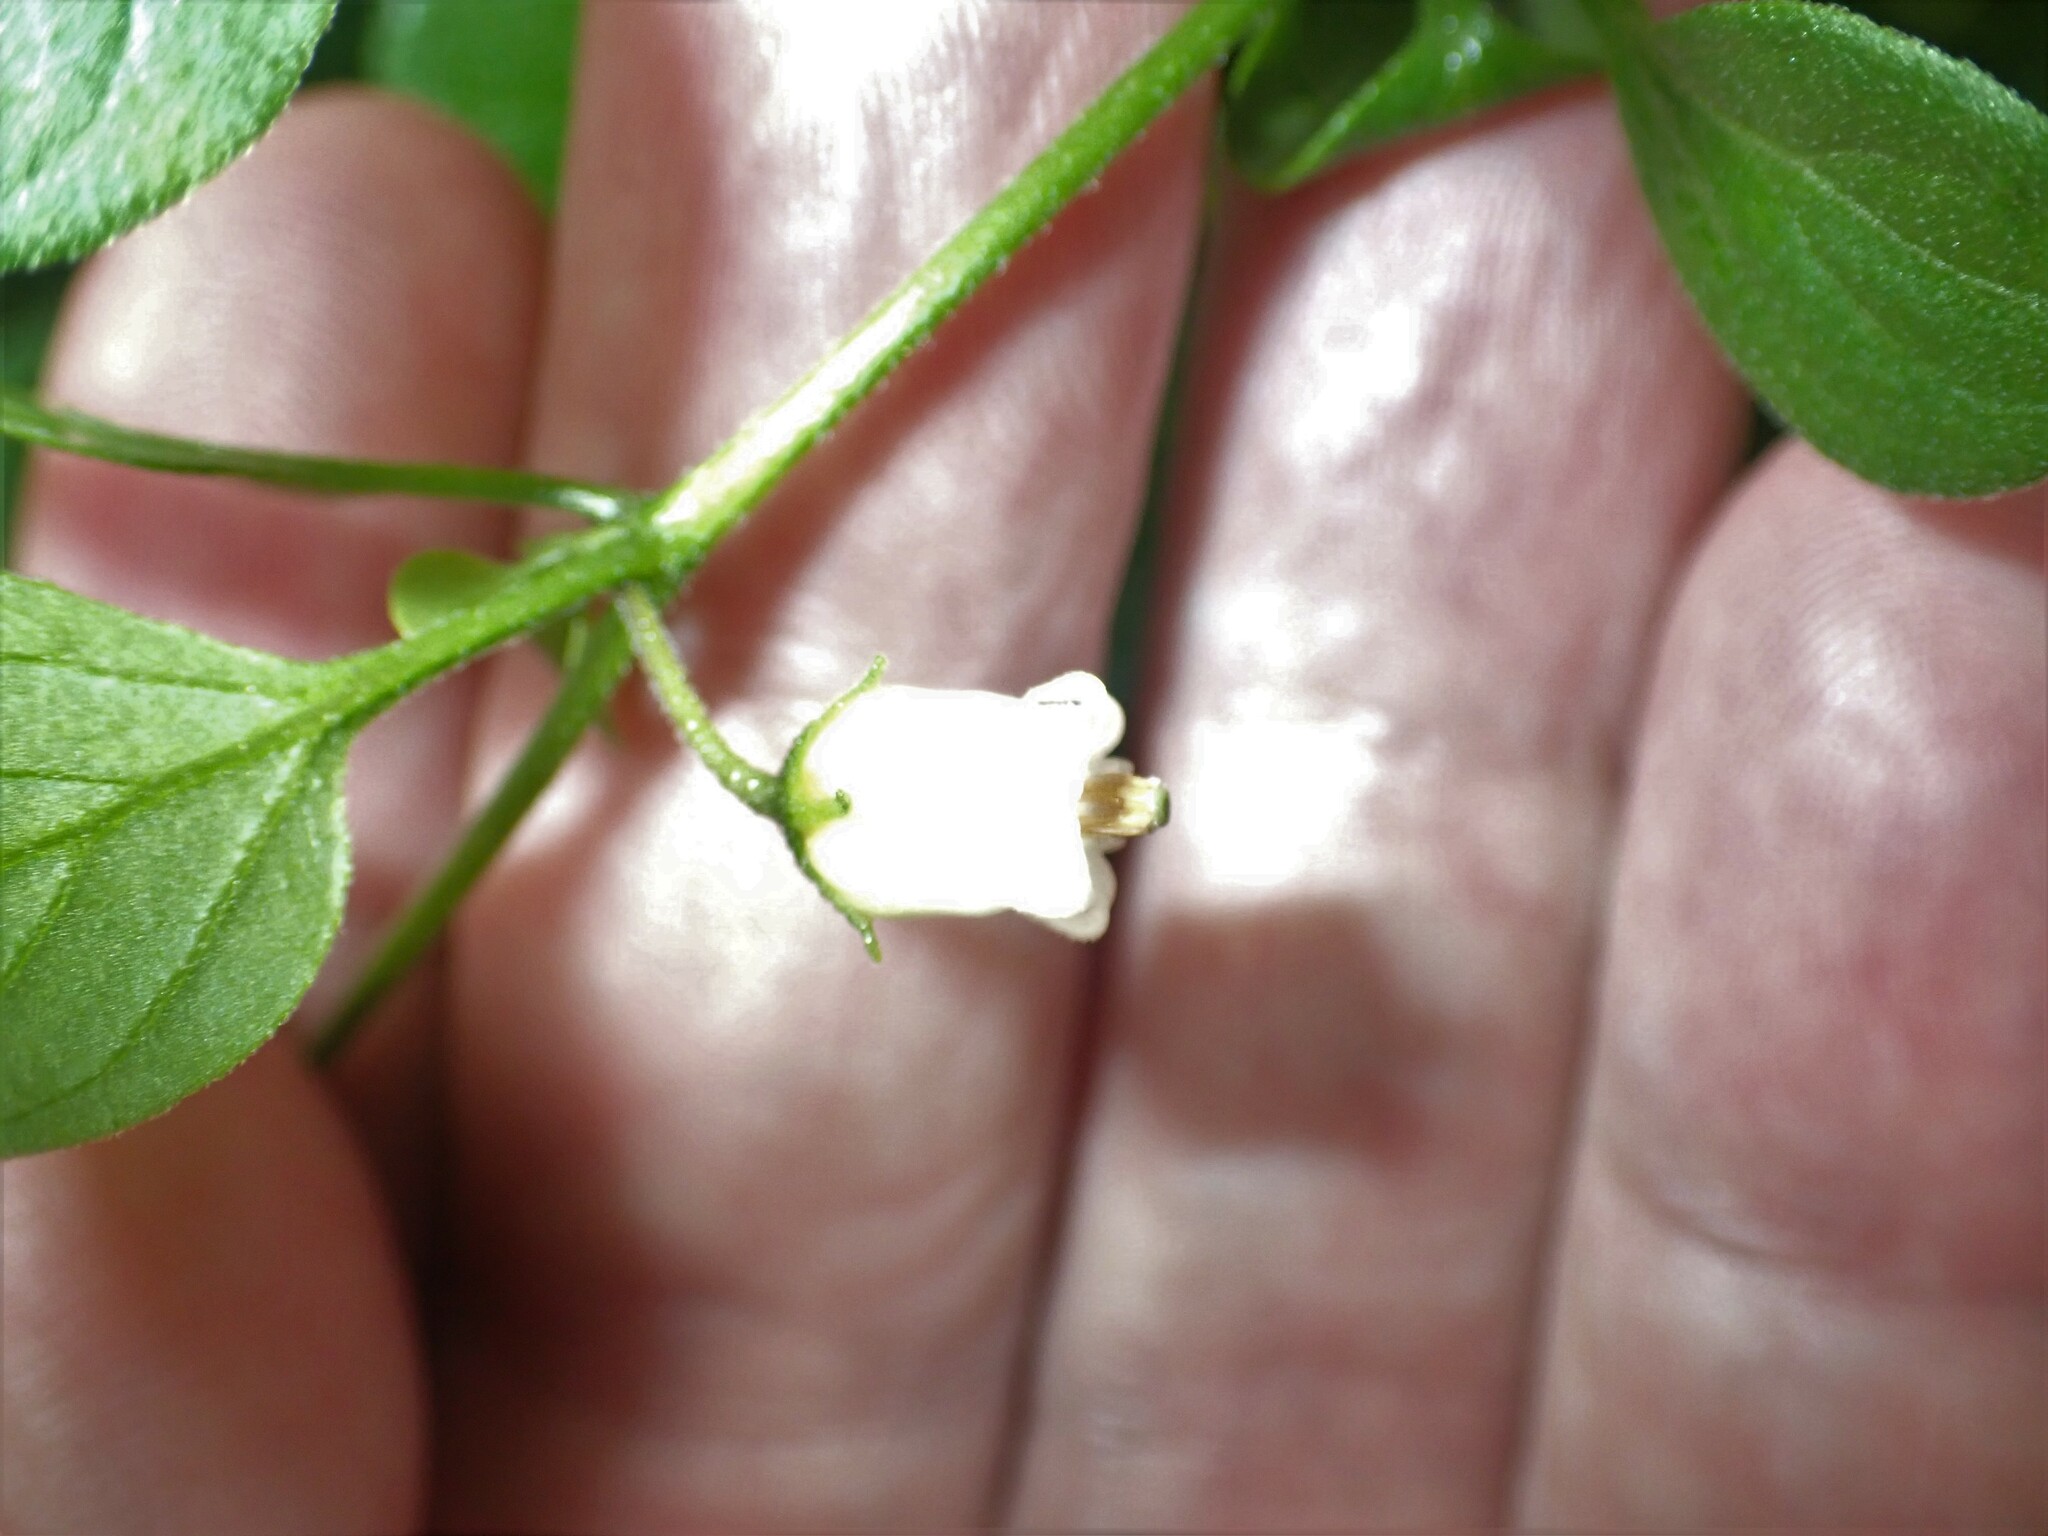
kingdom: Plantae
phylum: Tracheophyta
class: Magnoliopsida
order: Solanales
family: Solanaceae
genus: Salpichroa
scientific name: Salpichroa origanifolia
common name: Lily-of-the-valley-vine
